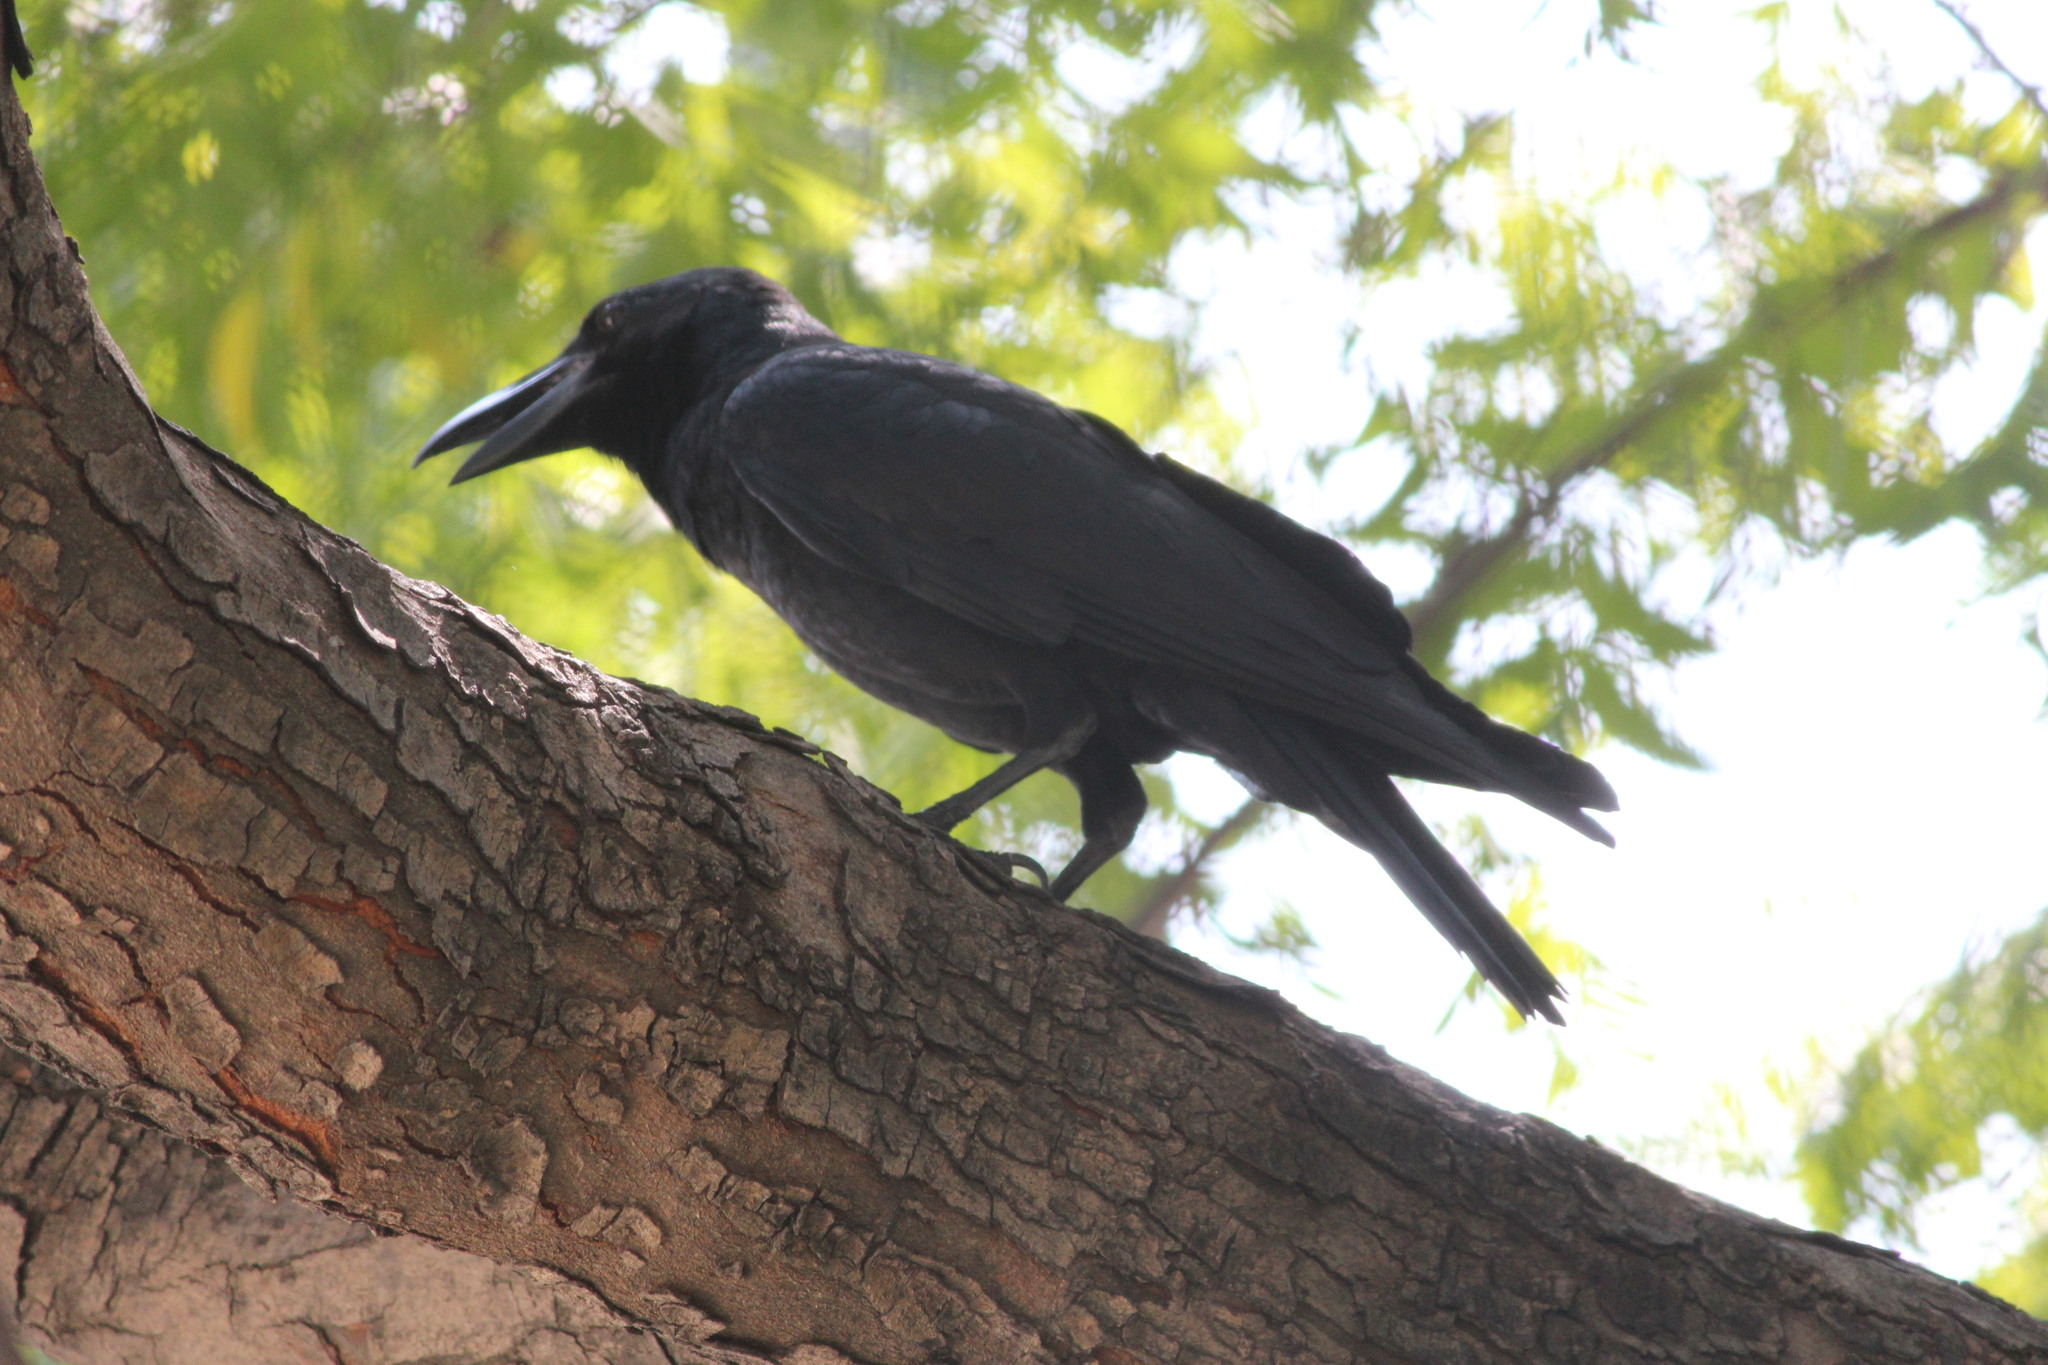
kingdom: Animalia
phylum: Chordata
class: Aves
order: Passeriformes
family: Corvidae
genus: Corvus
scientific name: Corvus macrorhynchos
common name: Large-billed crow
